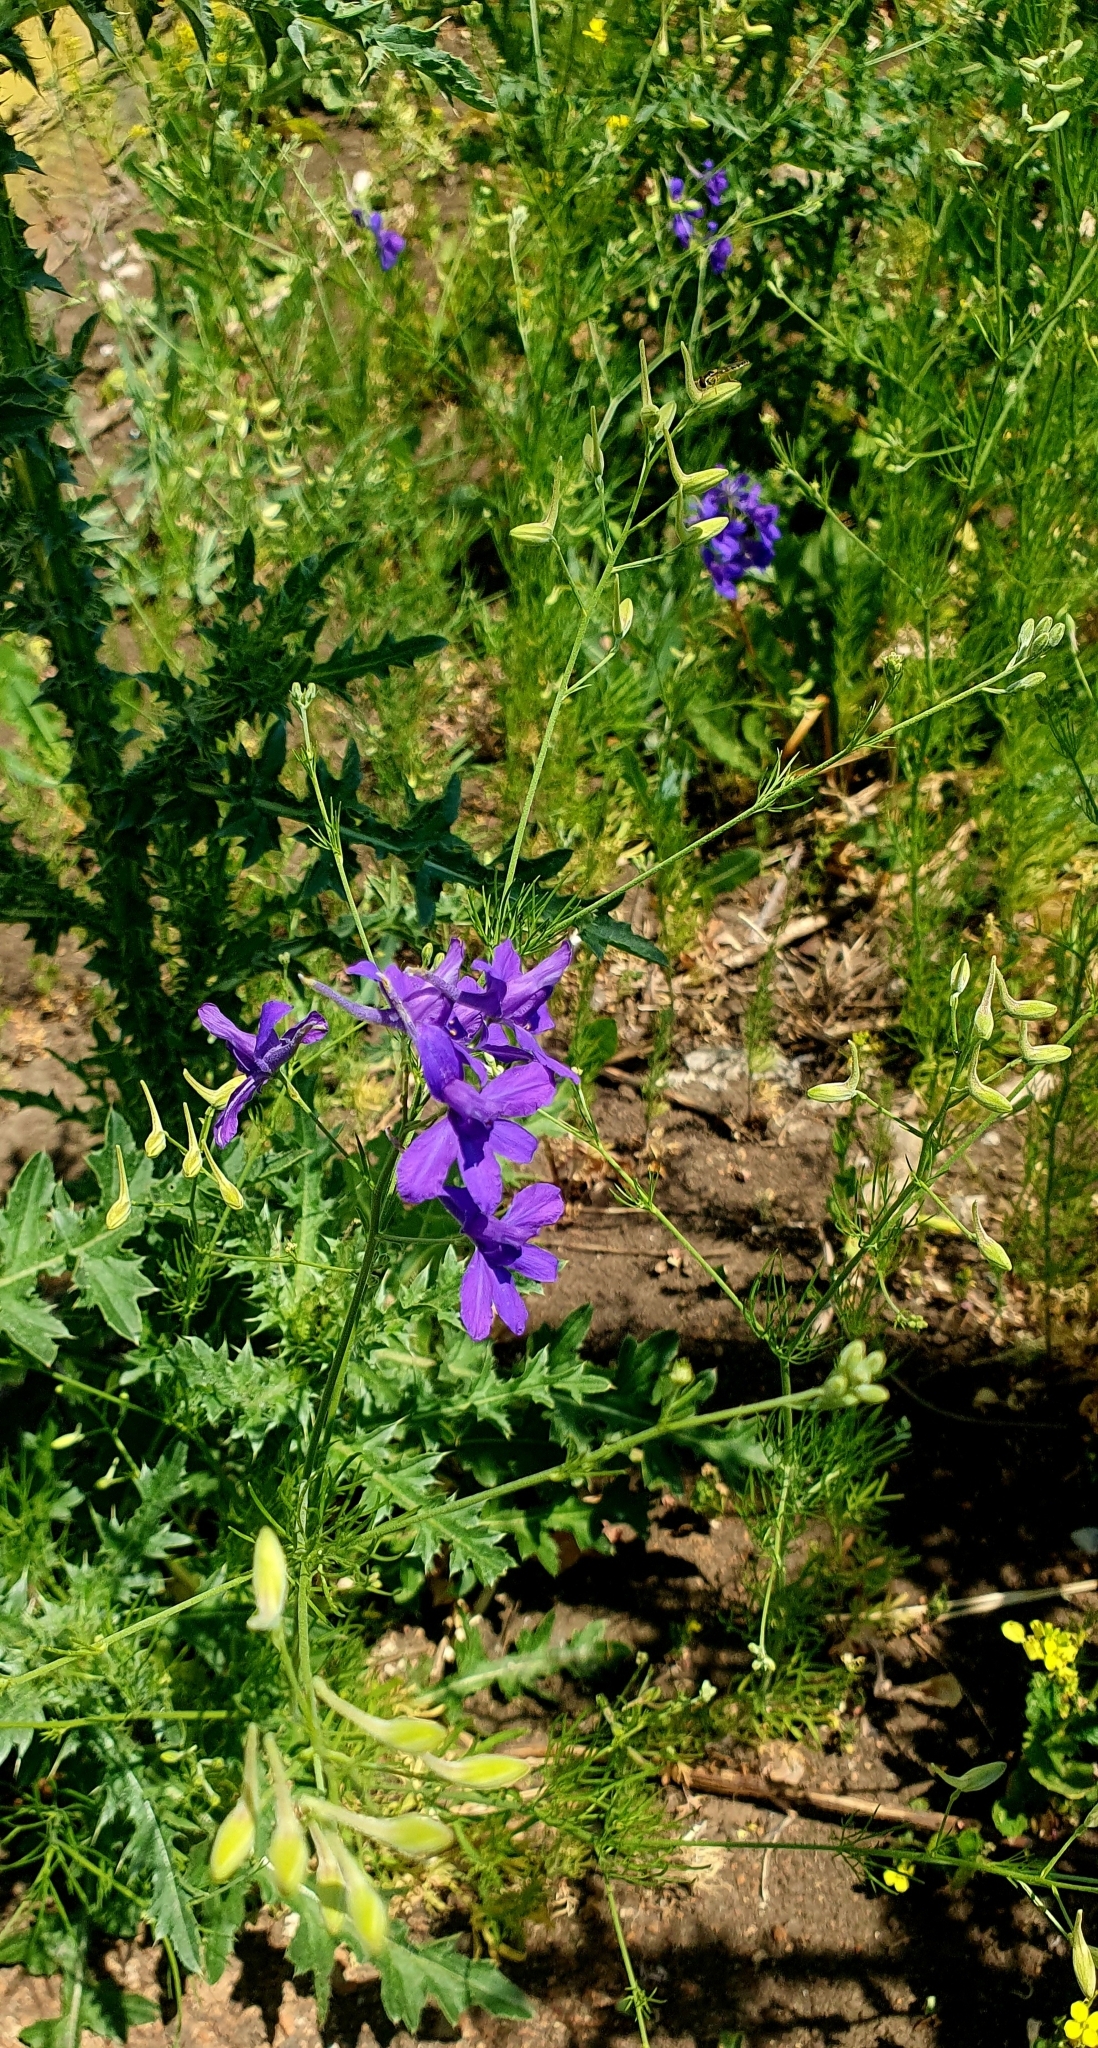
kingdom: Plantae
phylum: Tracheophyta
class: Magnoliopsida
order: Ranunculales
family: Ranunculaceae
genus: Delphinium
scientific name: Delphinium consolida
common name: Branching larkspur
